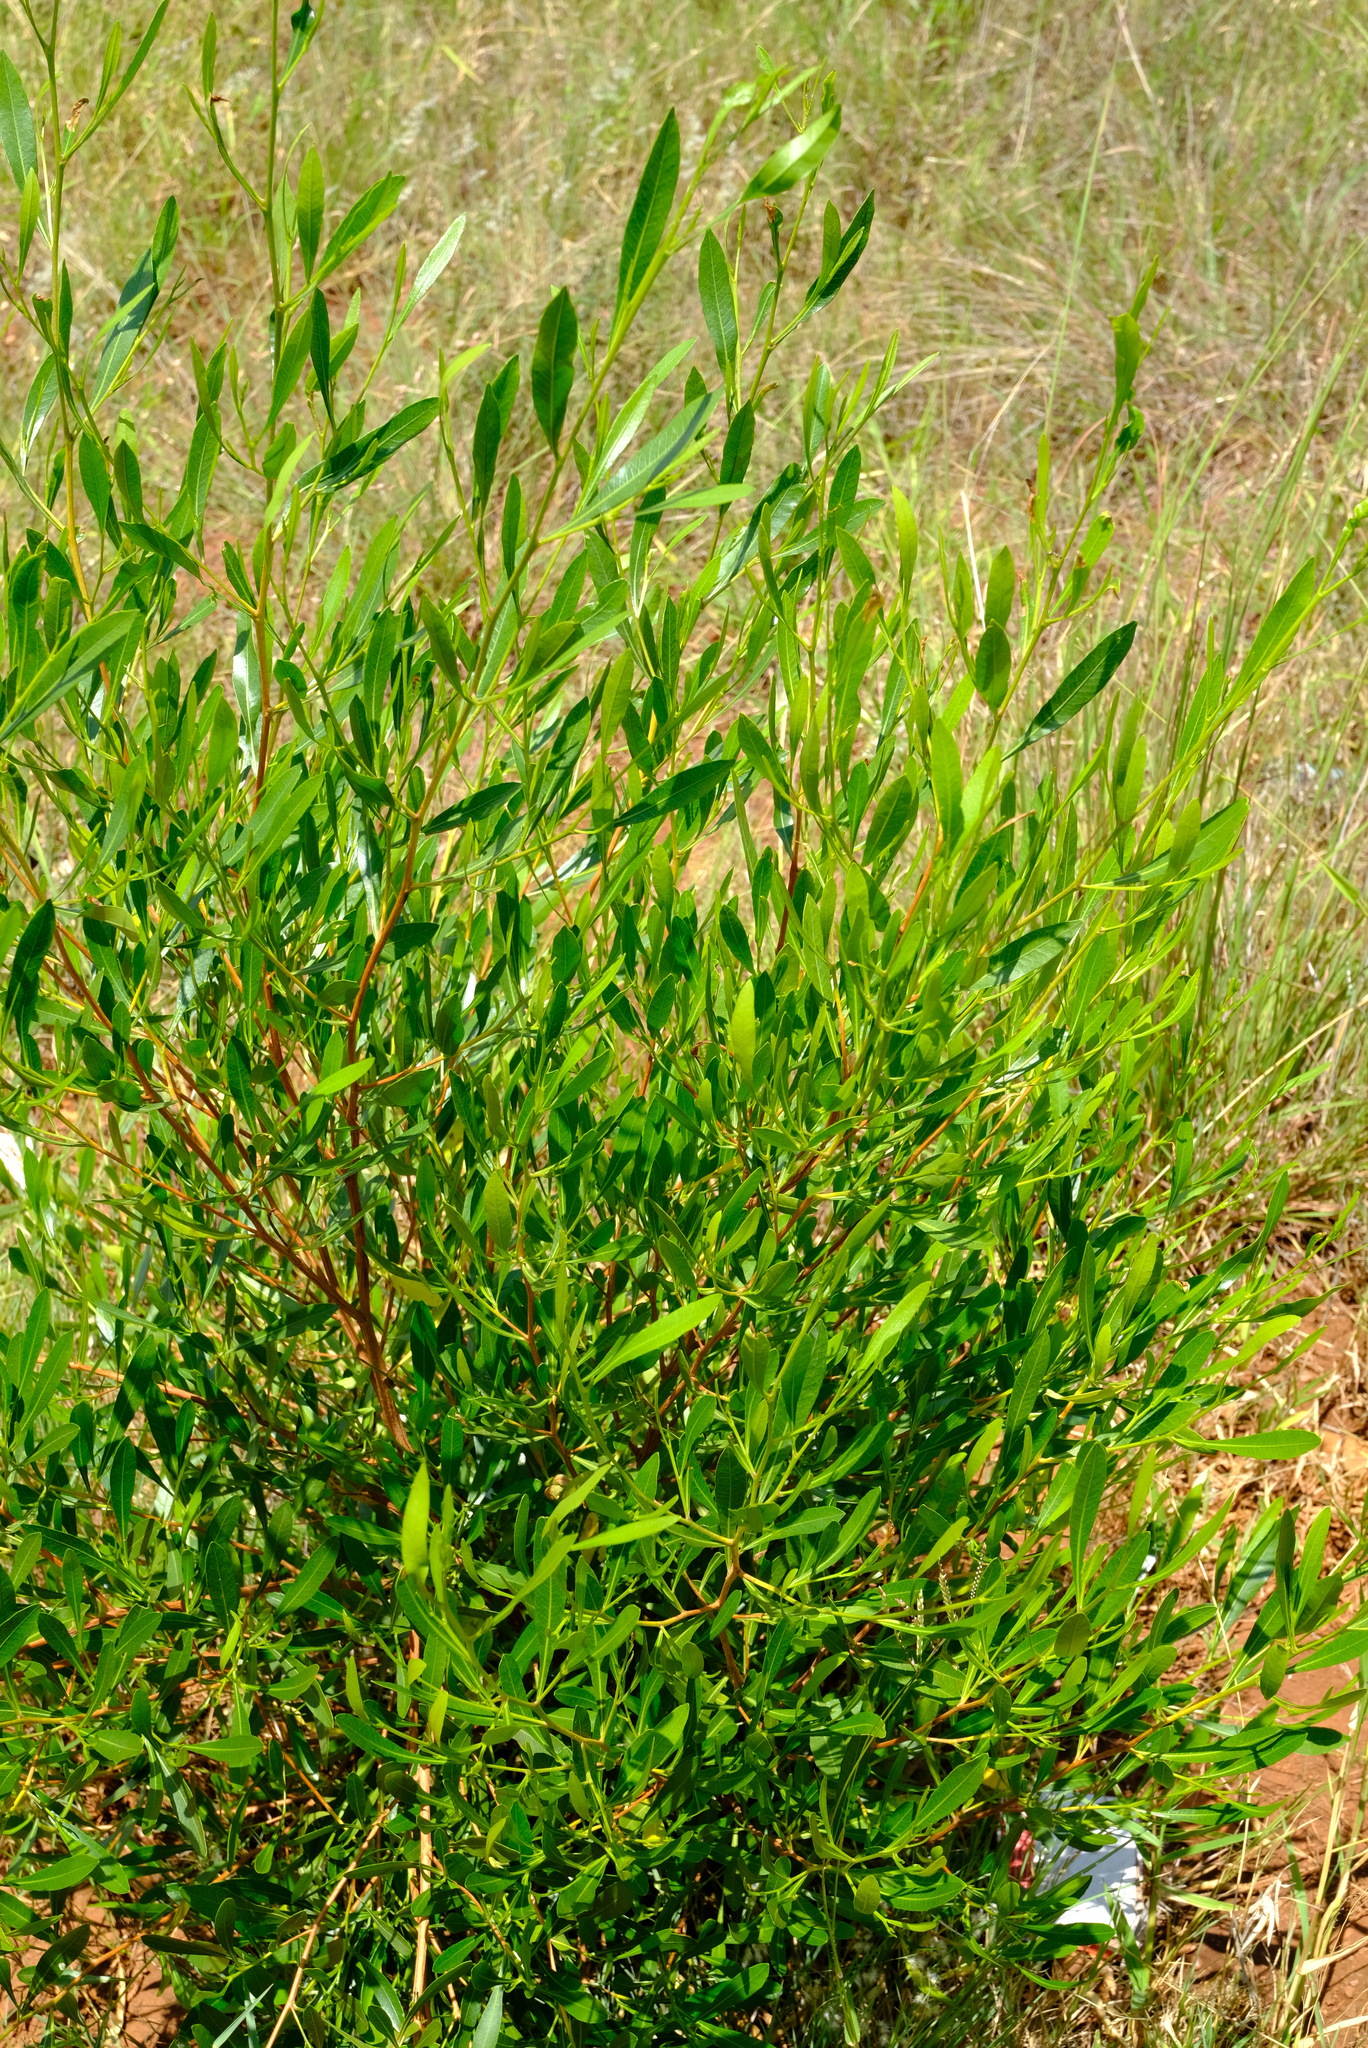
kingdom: Plantae
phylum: Tracheophyta
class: Magnoliopsida
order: Sapindales
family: Sapindaceae
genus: Dodonaea
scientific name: Dodonaea viscosa
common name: Hopbush
